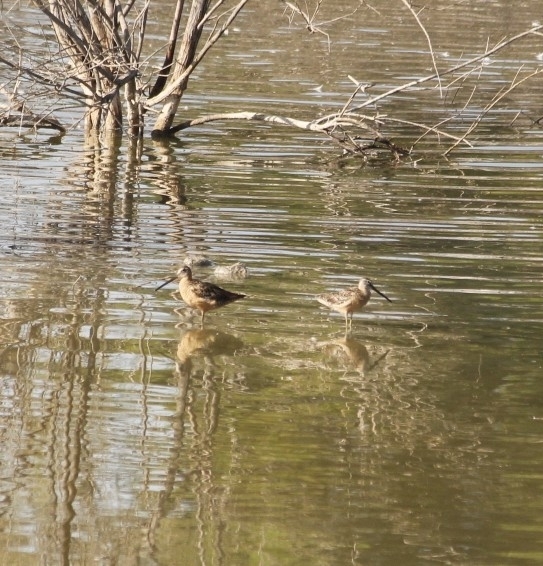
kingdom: Animalia
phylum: Chordata
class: Aves
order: Charadriiformes
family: Scolopacidae
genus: Limnodromus
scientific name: Limnodromus scolopaceus
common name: Long-billed dowitcher
